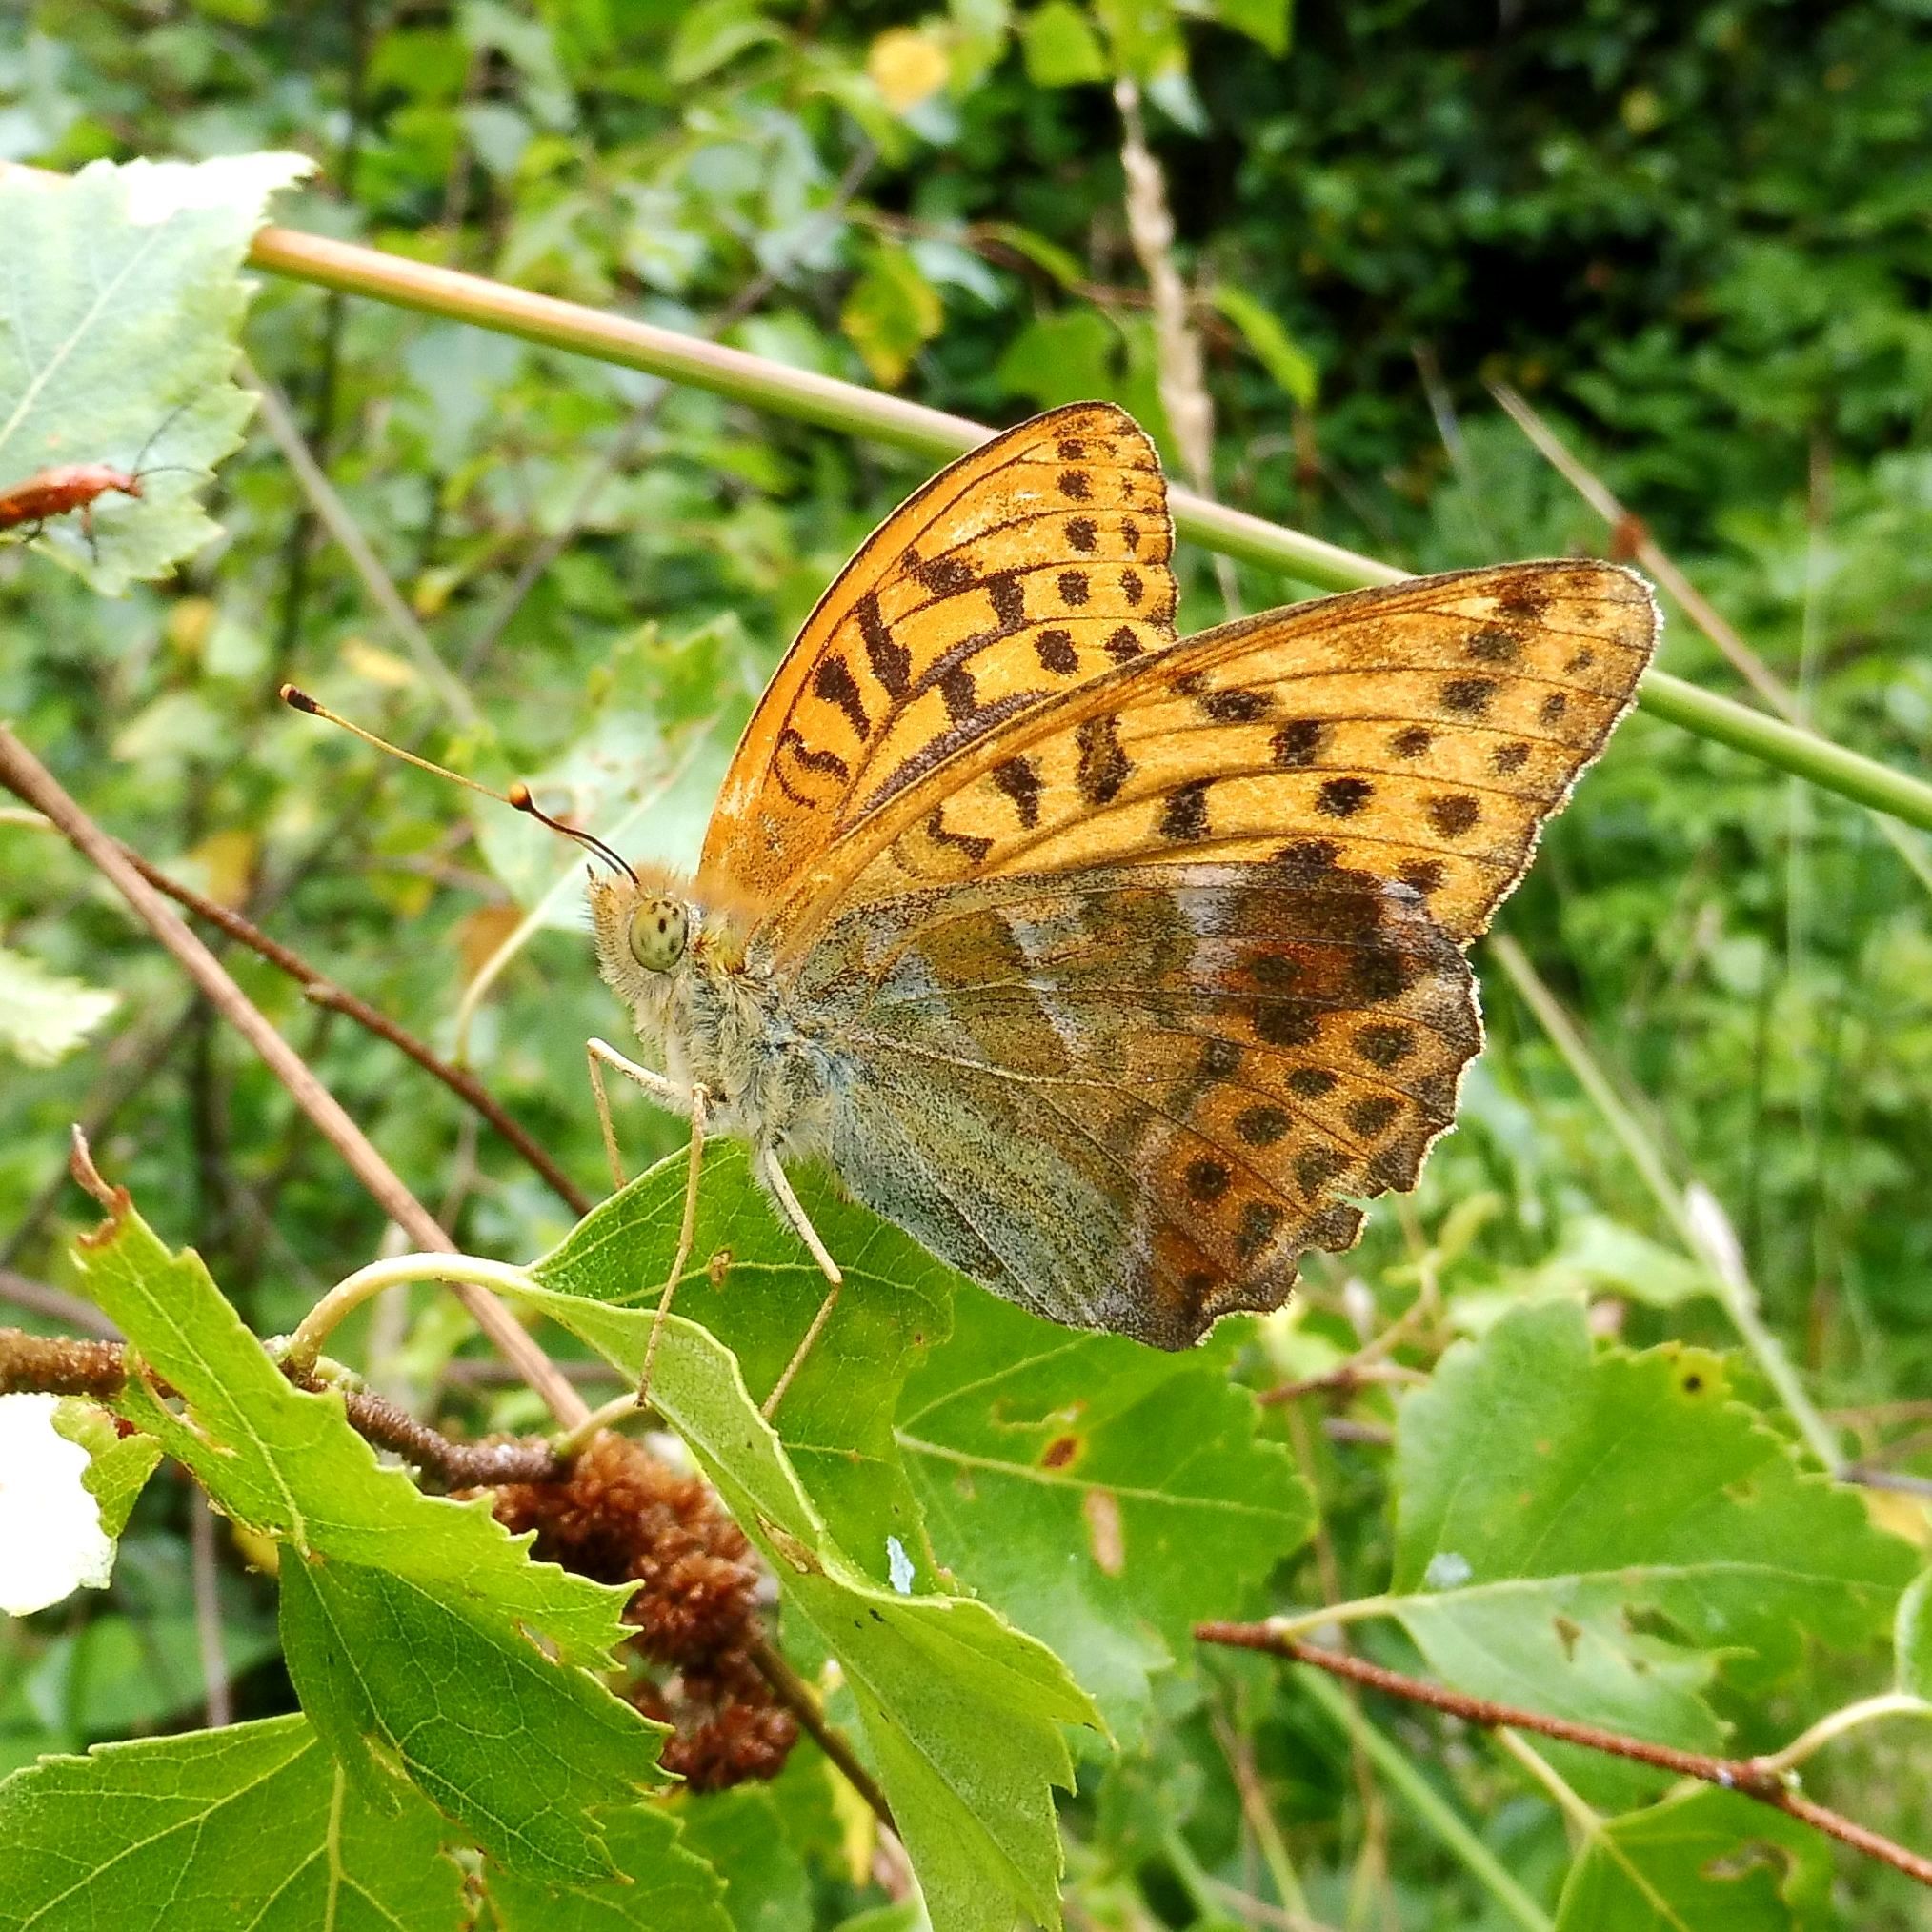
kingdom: Animalia
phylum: Arthropoda
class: Insecta
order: Lepidoptera
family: Nymphalidae
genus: Argynnis
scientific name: Argynnis paphia
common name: Silver-washed fritillary
